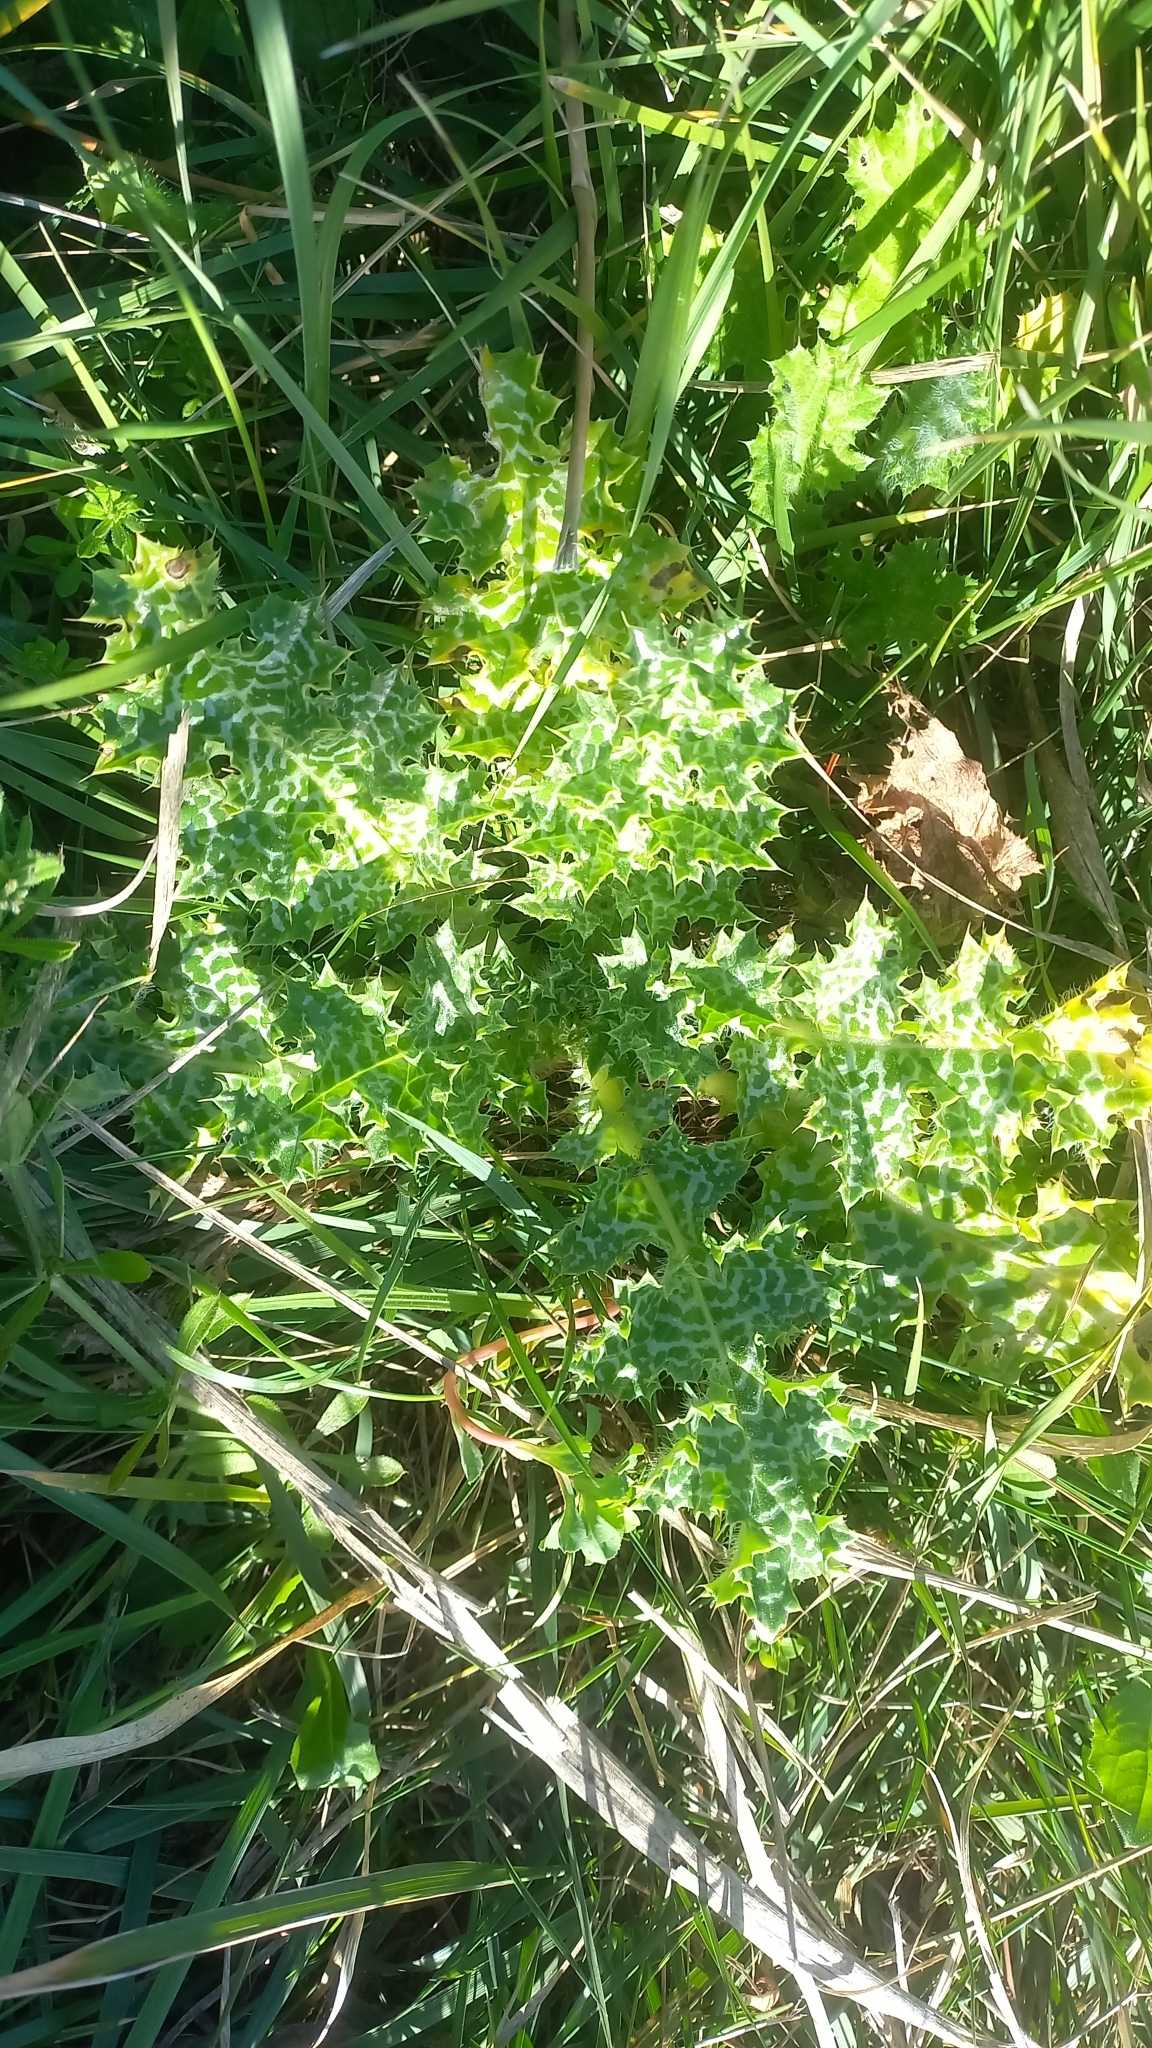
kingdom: Plantae
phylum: Tracheophyta
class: Magnoliopsida
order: Asterales
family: Asteraceae
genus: Silybum
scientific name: Silybum marianum
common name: Milk thistle
